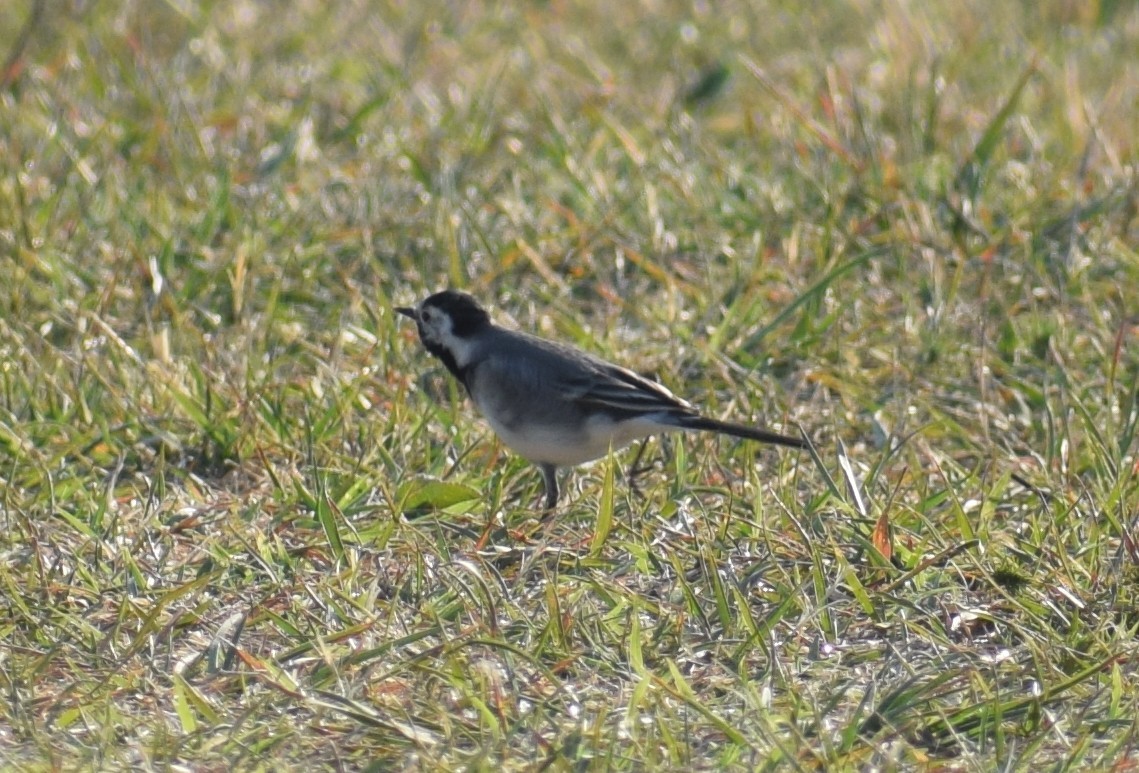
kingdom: Animalia
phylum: Chordata
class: Aves
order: Passeriformes
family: Motacillidae
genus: Motacilla
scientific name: Motacilla alba
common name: White wagtail
